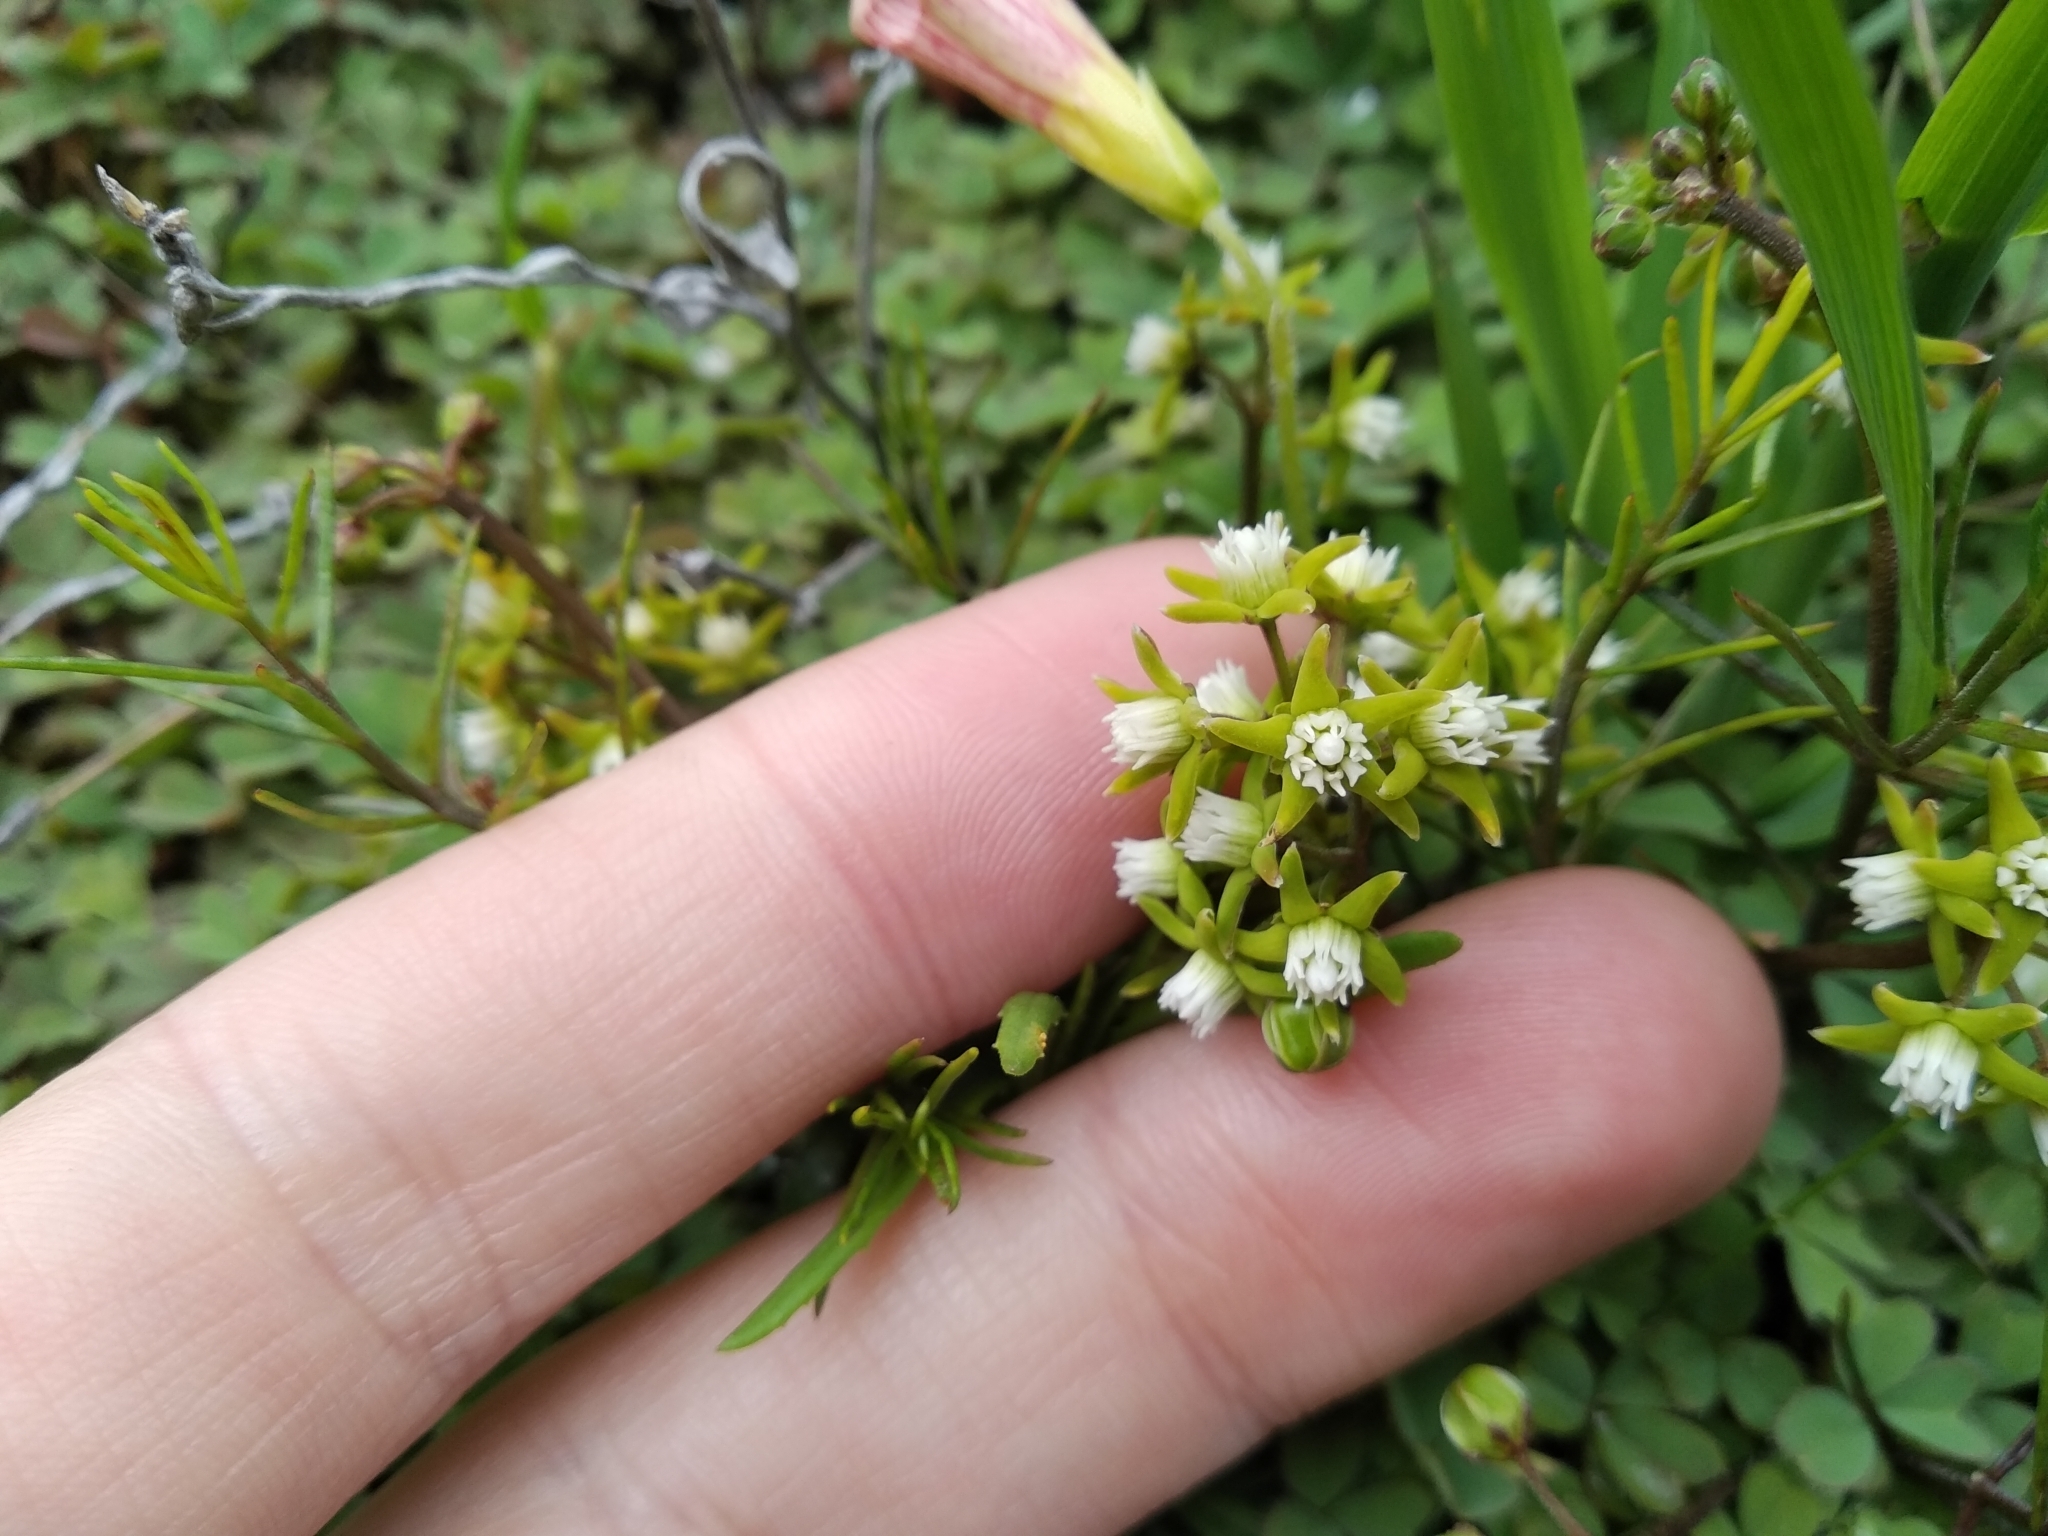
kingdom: Plantae
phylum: Tracheophyta
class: Magnoliopsida
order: Gentianales
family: Apocynaceae
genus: Eustegia
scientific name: Eustegia minuta
